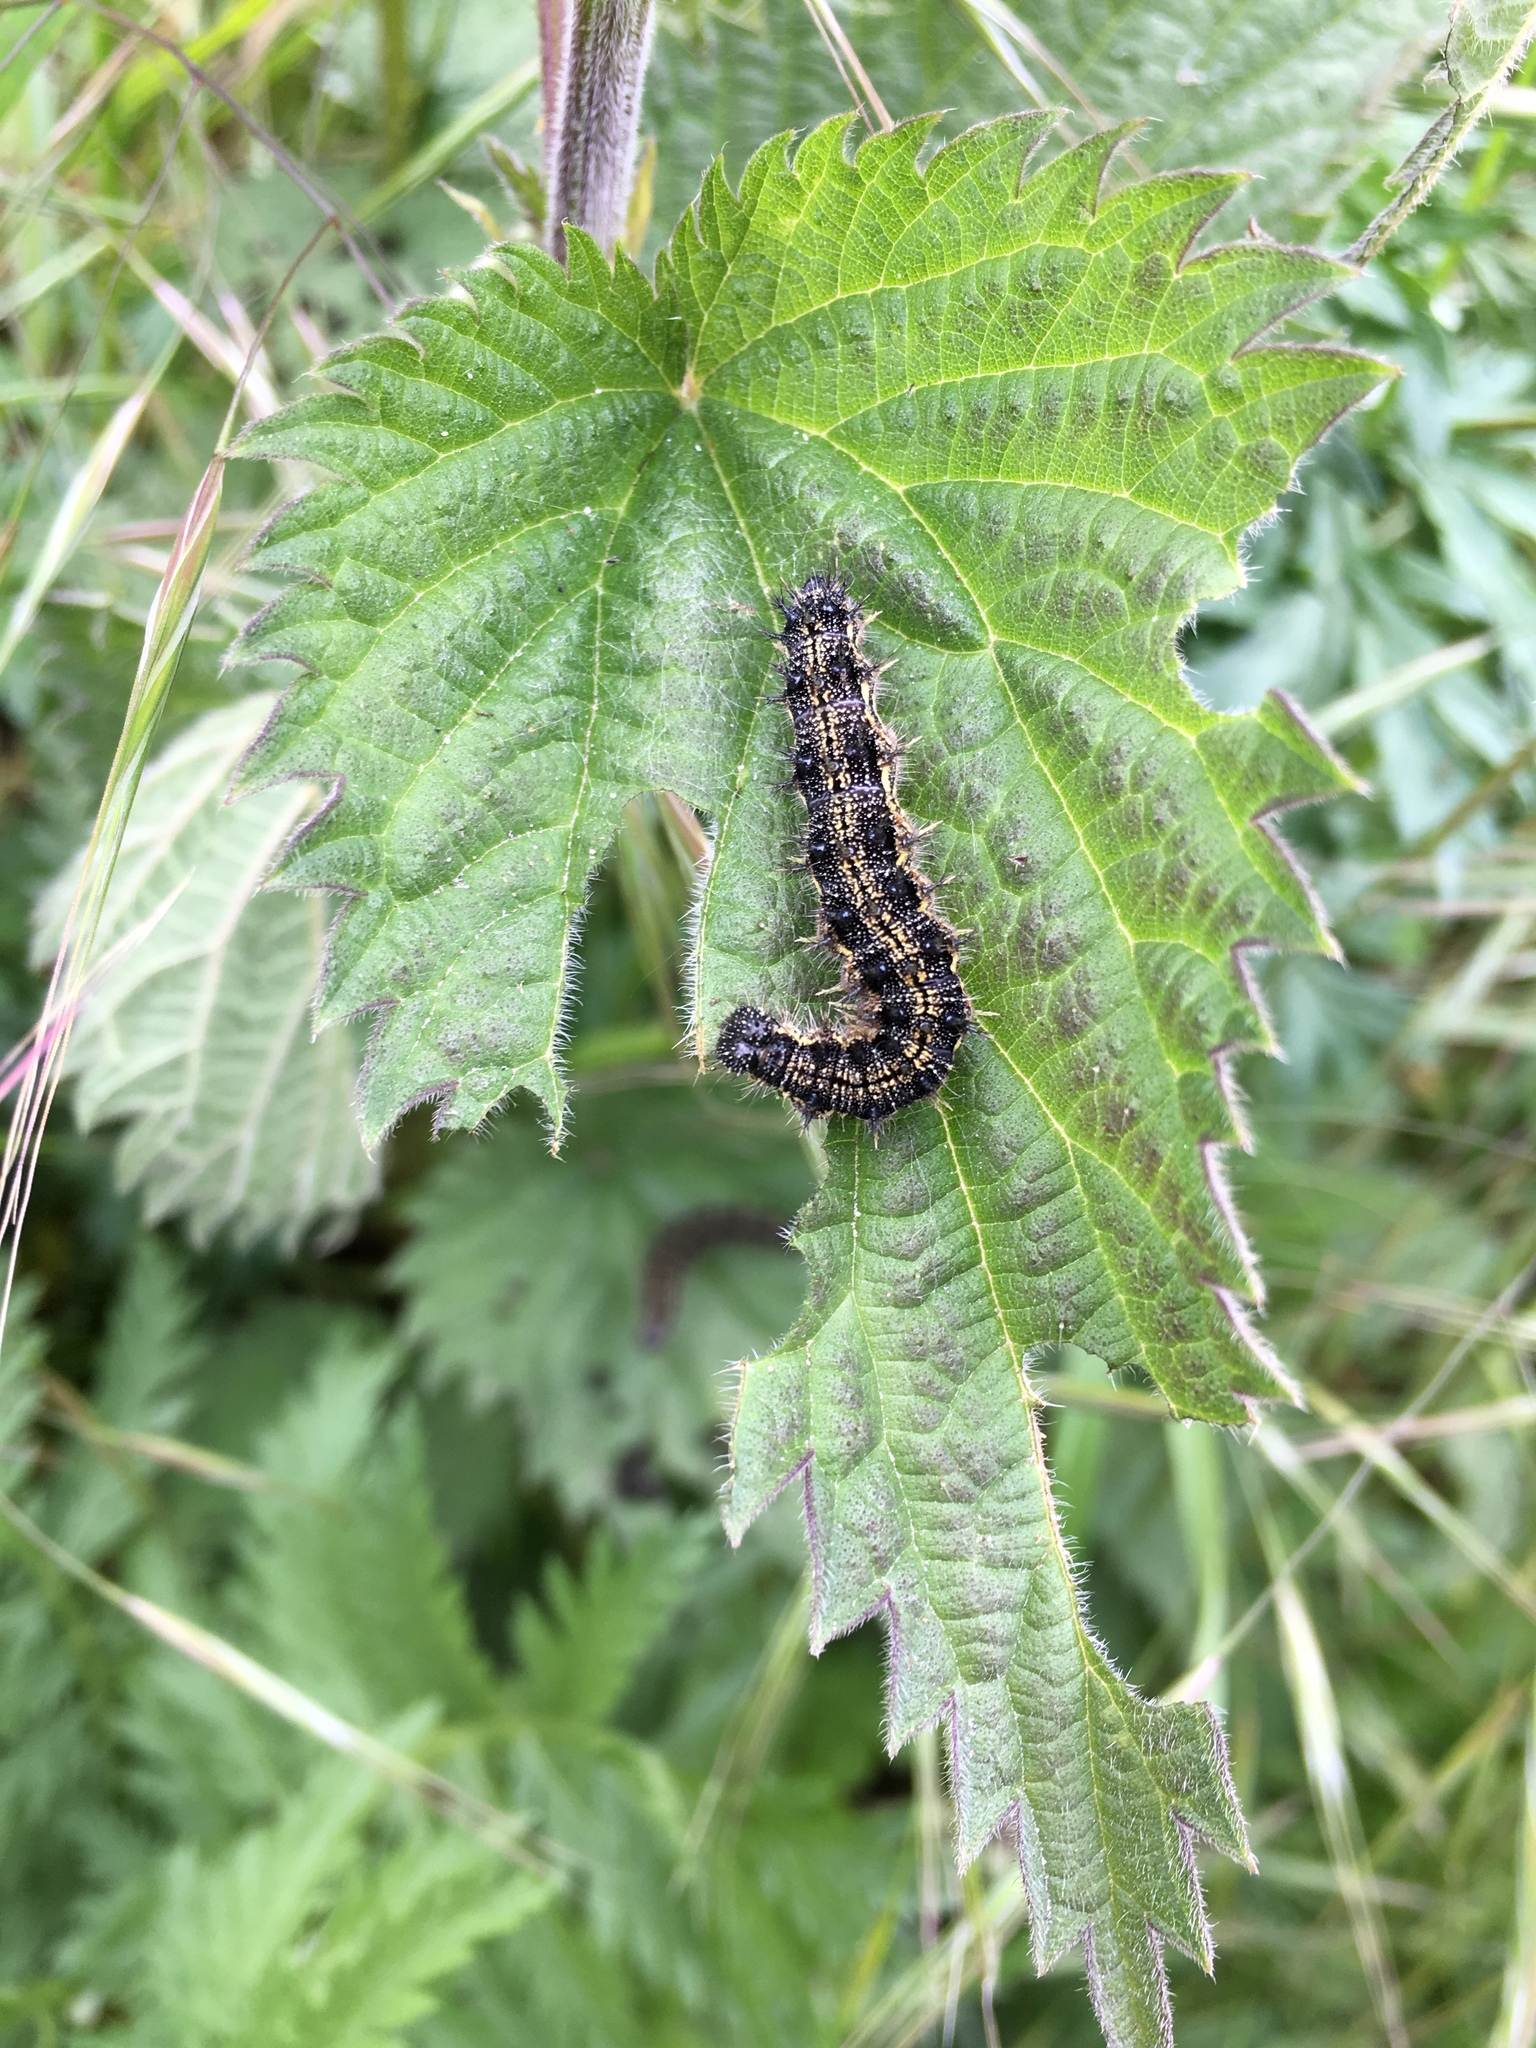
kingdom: Animalia
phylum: Arthropoda
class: Insecta
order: Lepidoptera
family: Nymphalidae
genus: Aglais
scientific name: Aglais urticae
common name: Small tortoiseshell
